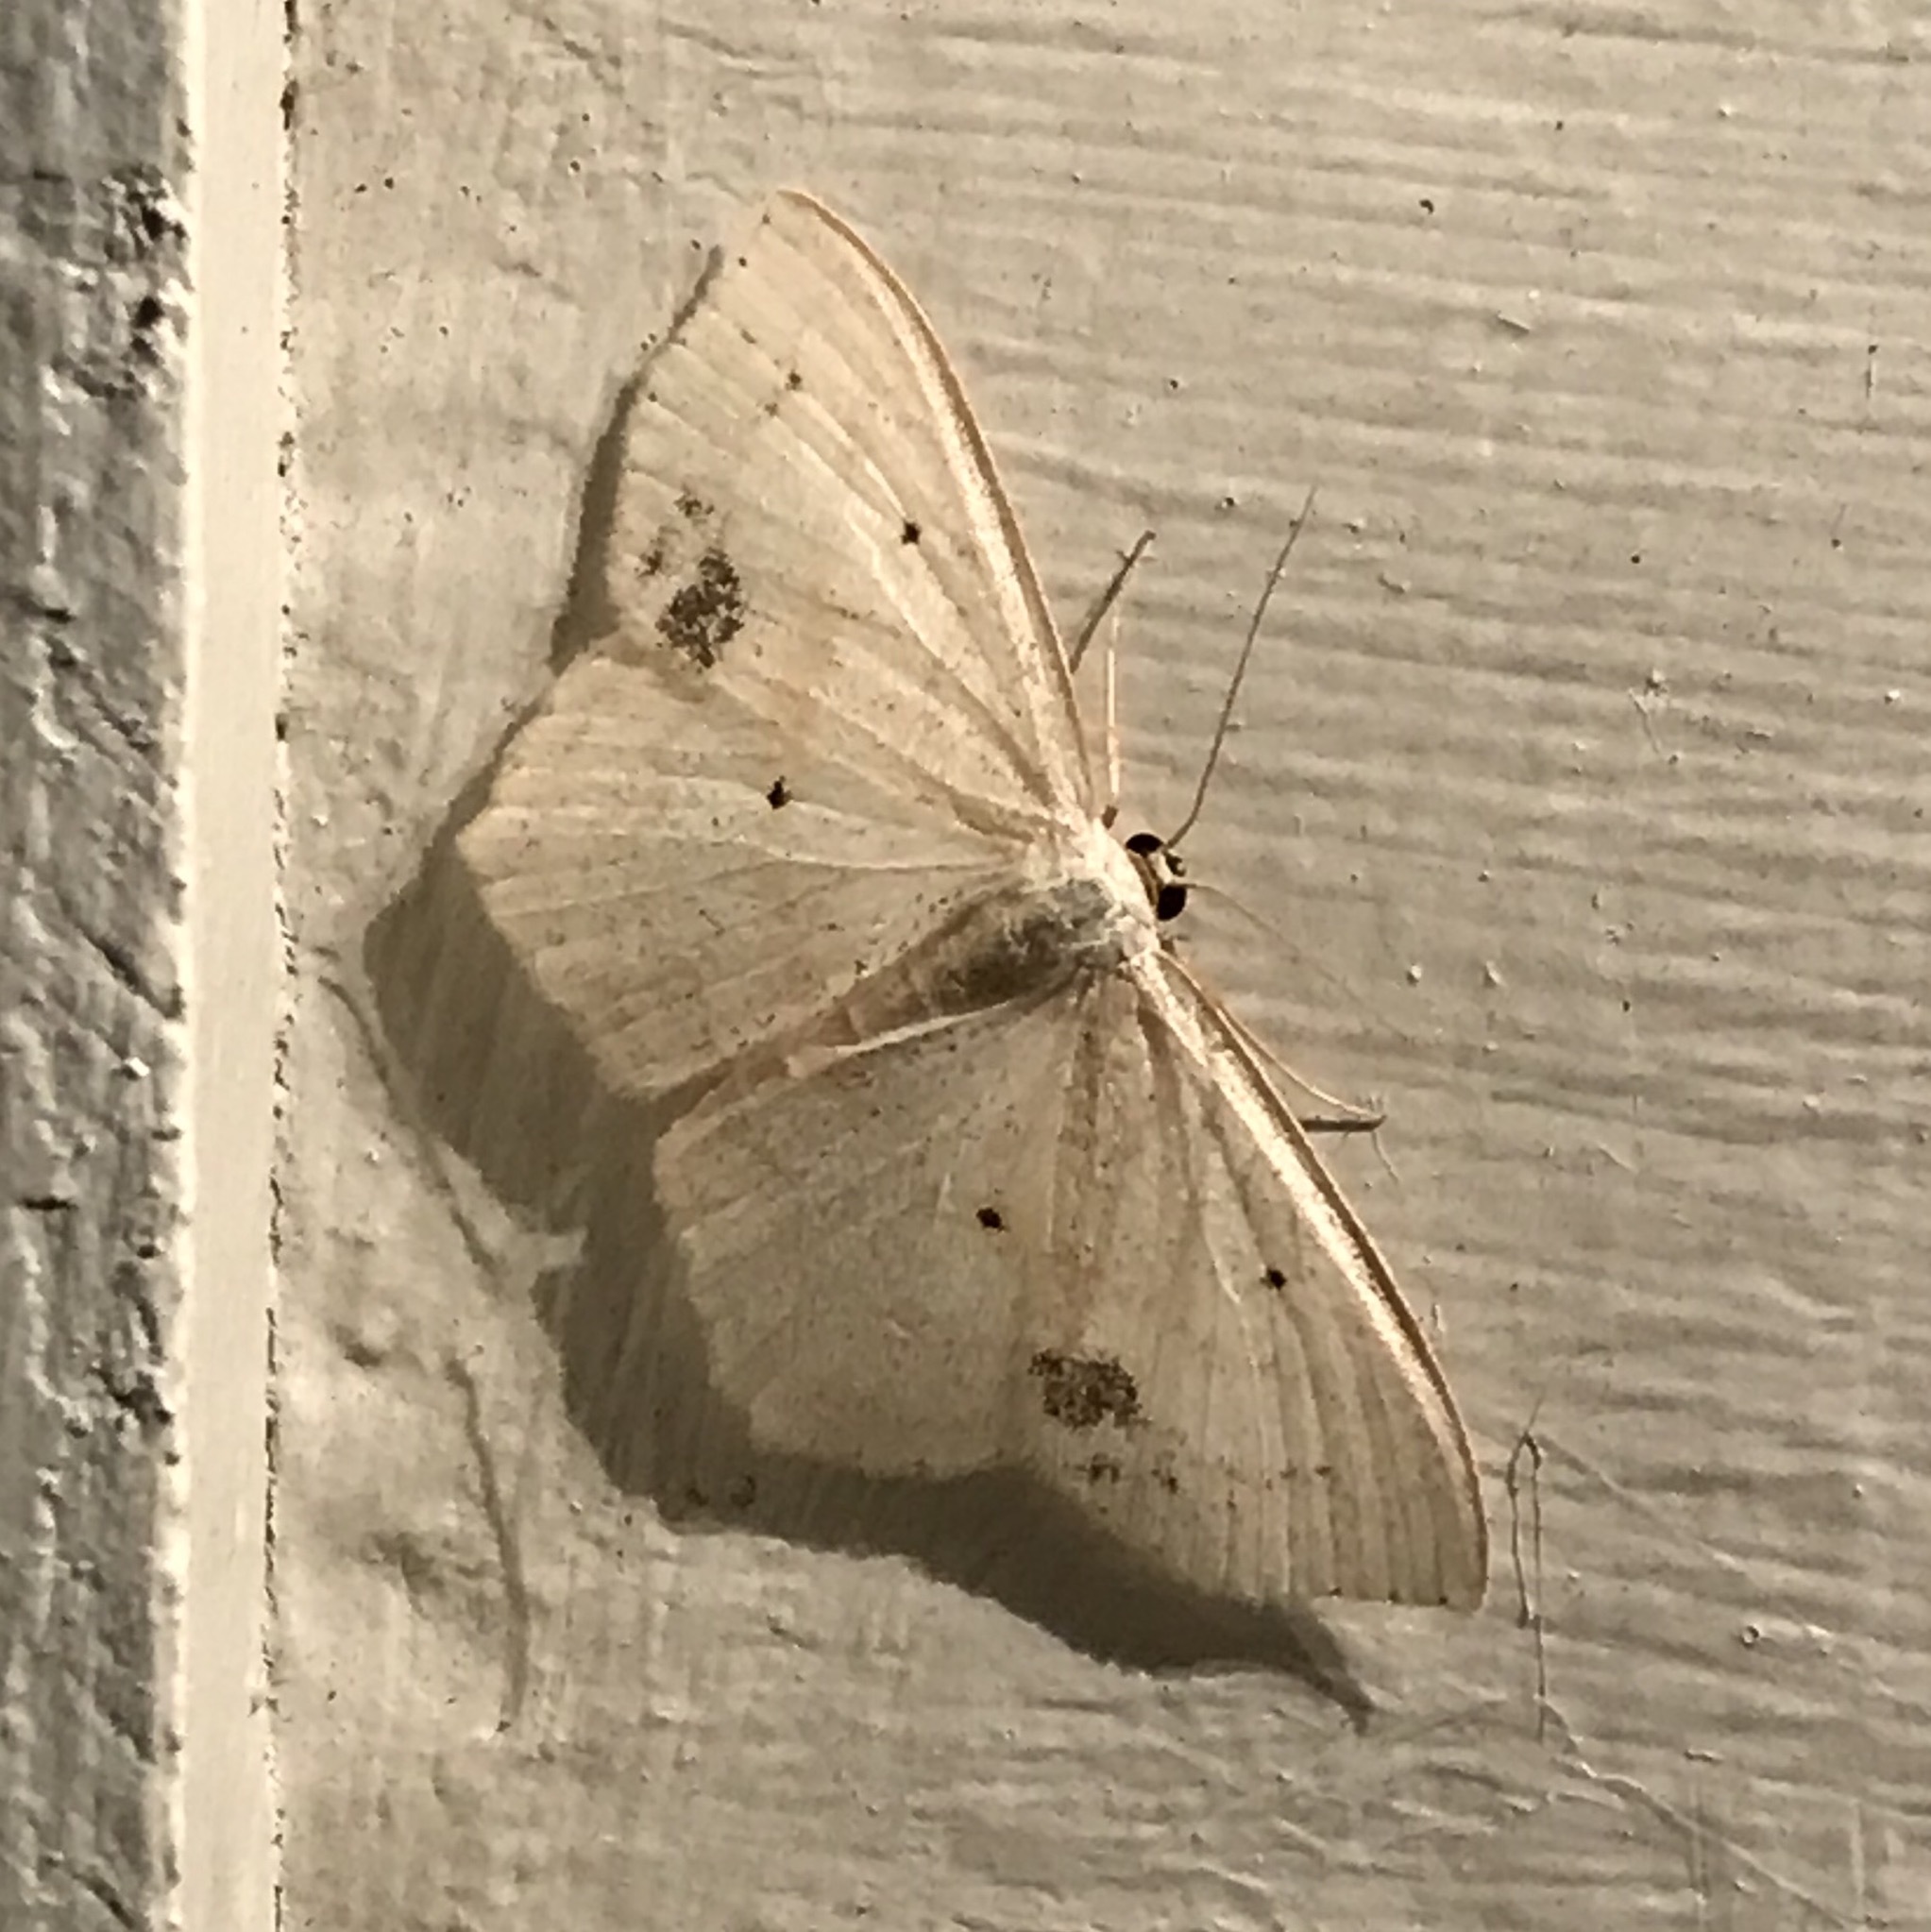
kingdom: Animalia
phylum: Arthropoda
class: Insecta
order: Lepidoptera
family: Geometridae
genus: Scopula
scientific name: Scopula limboundata
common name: Large lace border
